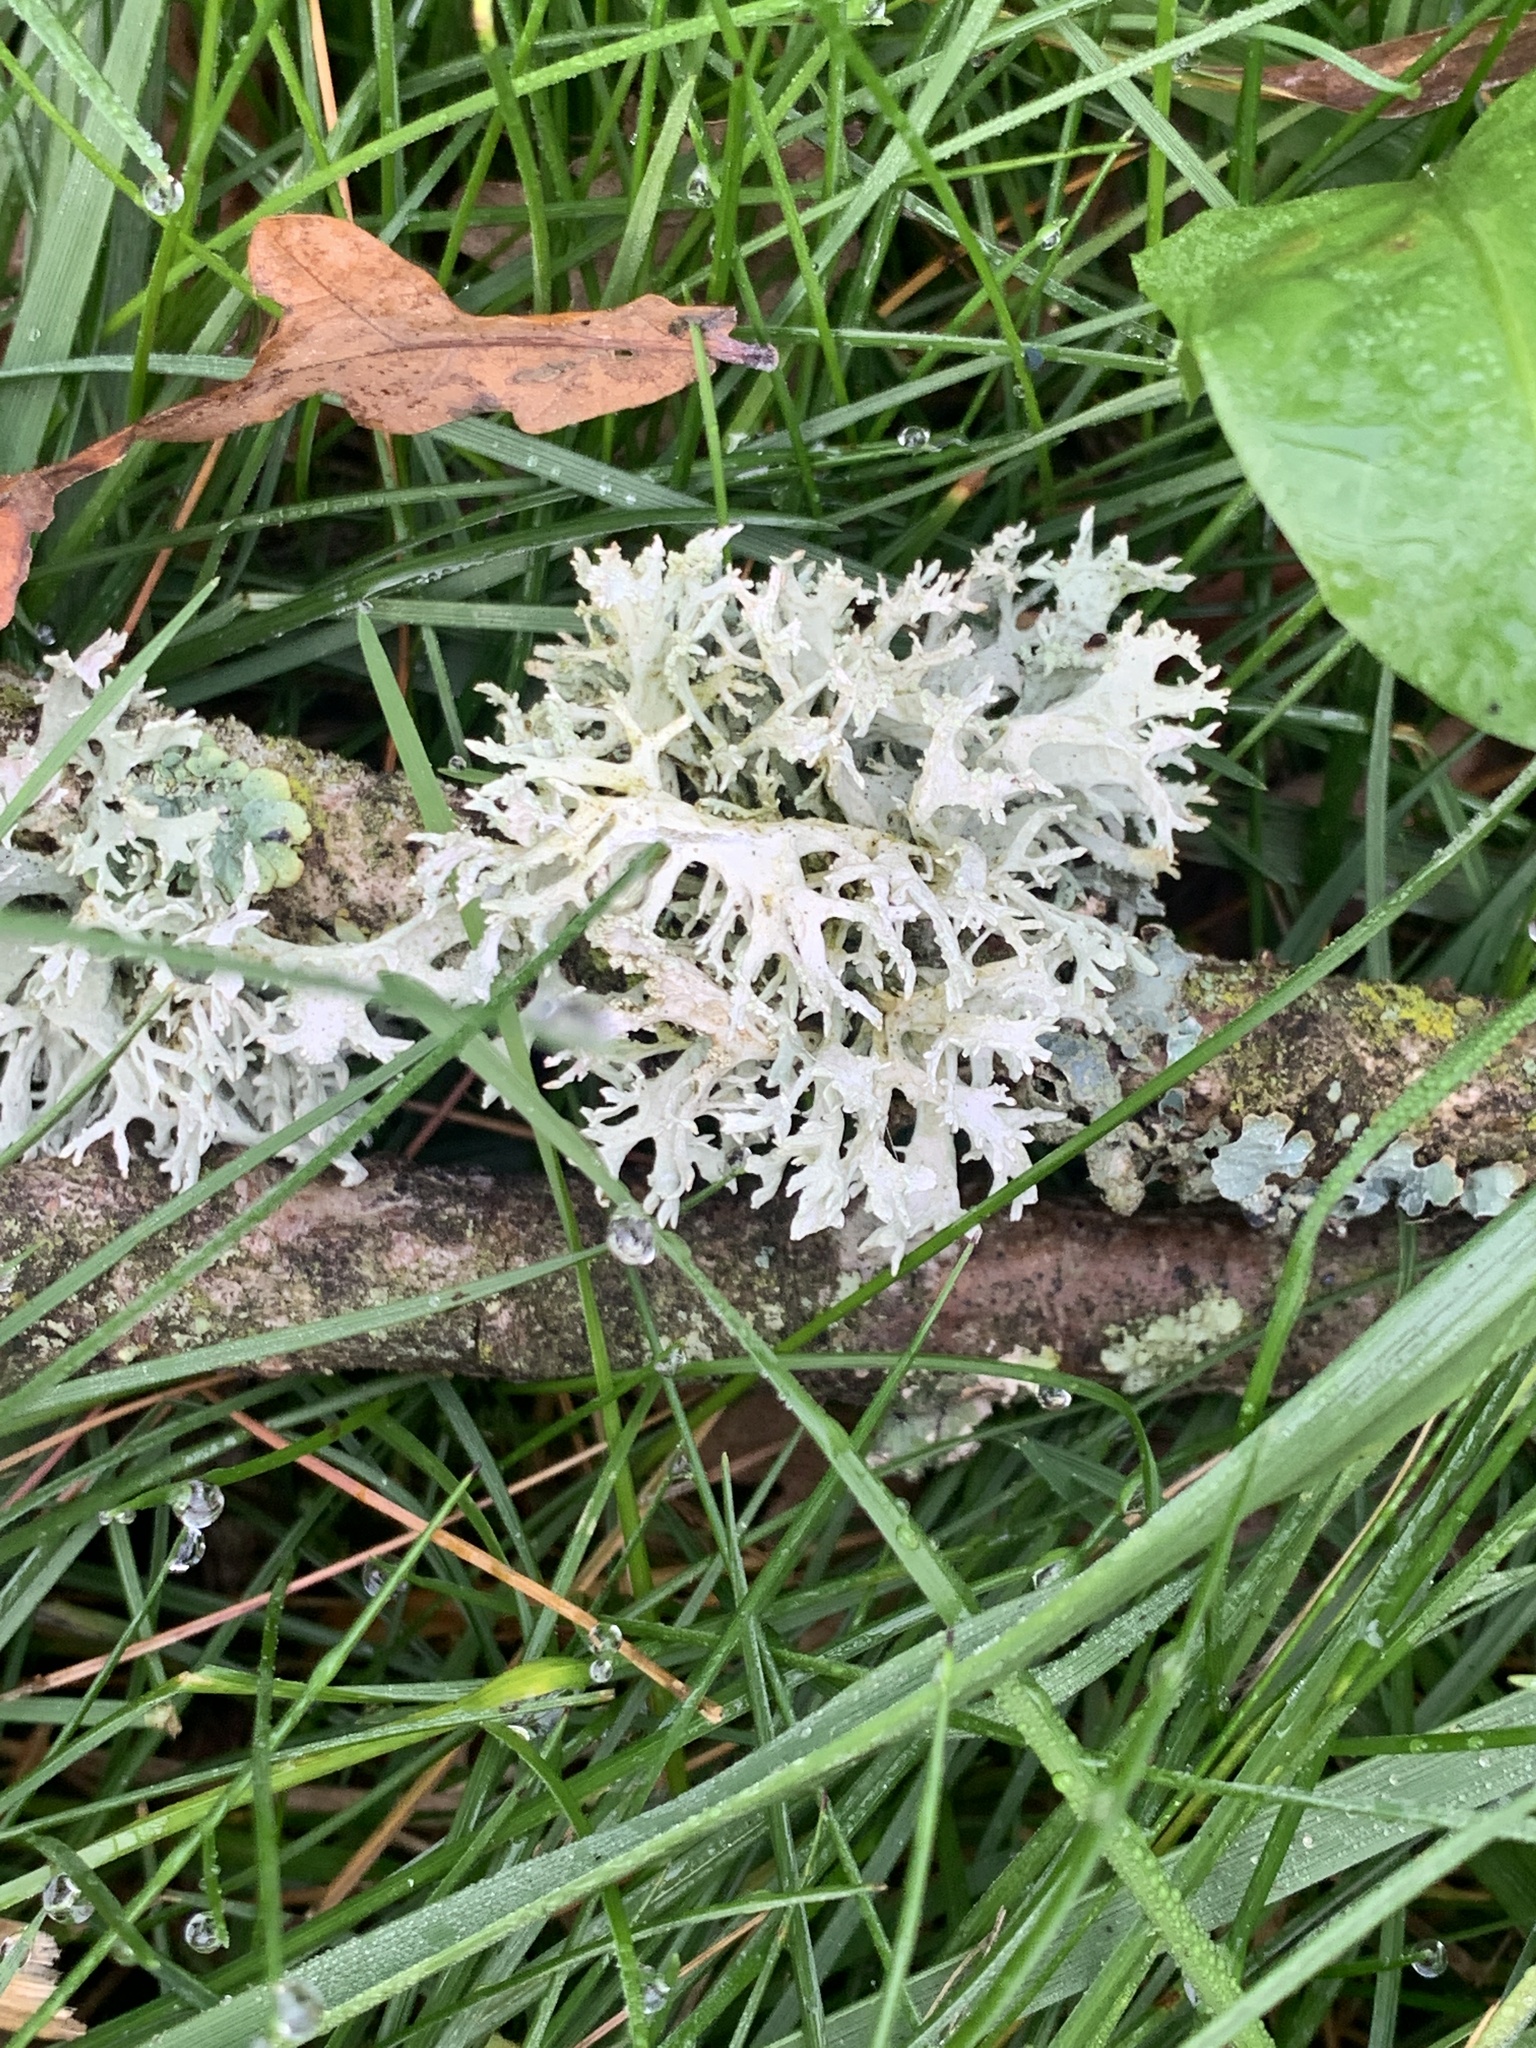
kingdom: Fungi
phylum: Ascomycota
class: Lecanoromycetes
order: Lecanorales
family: Parmeliaceae
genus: Evernia
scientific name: Evernia prunastri
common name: Oak moss
